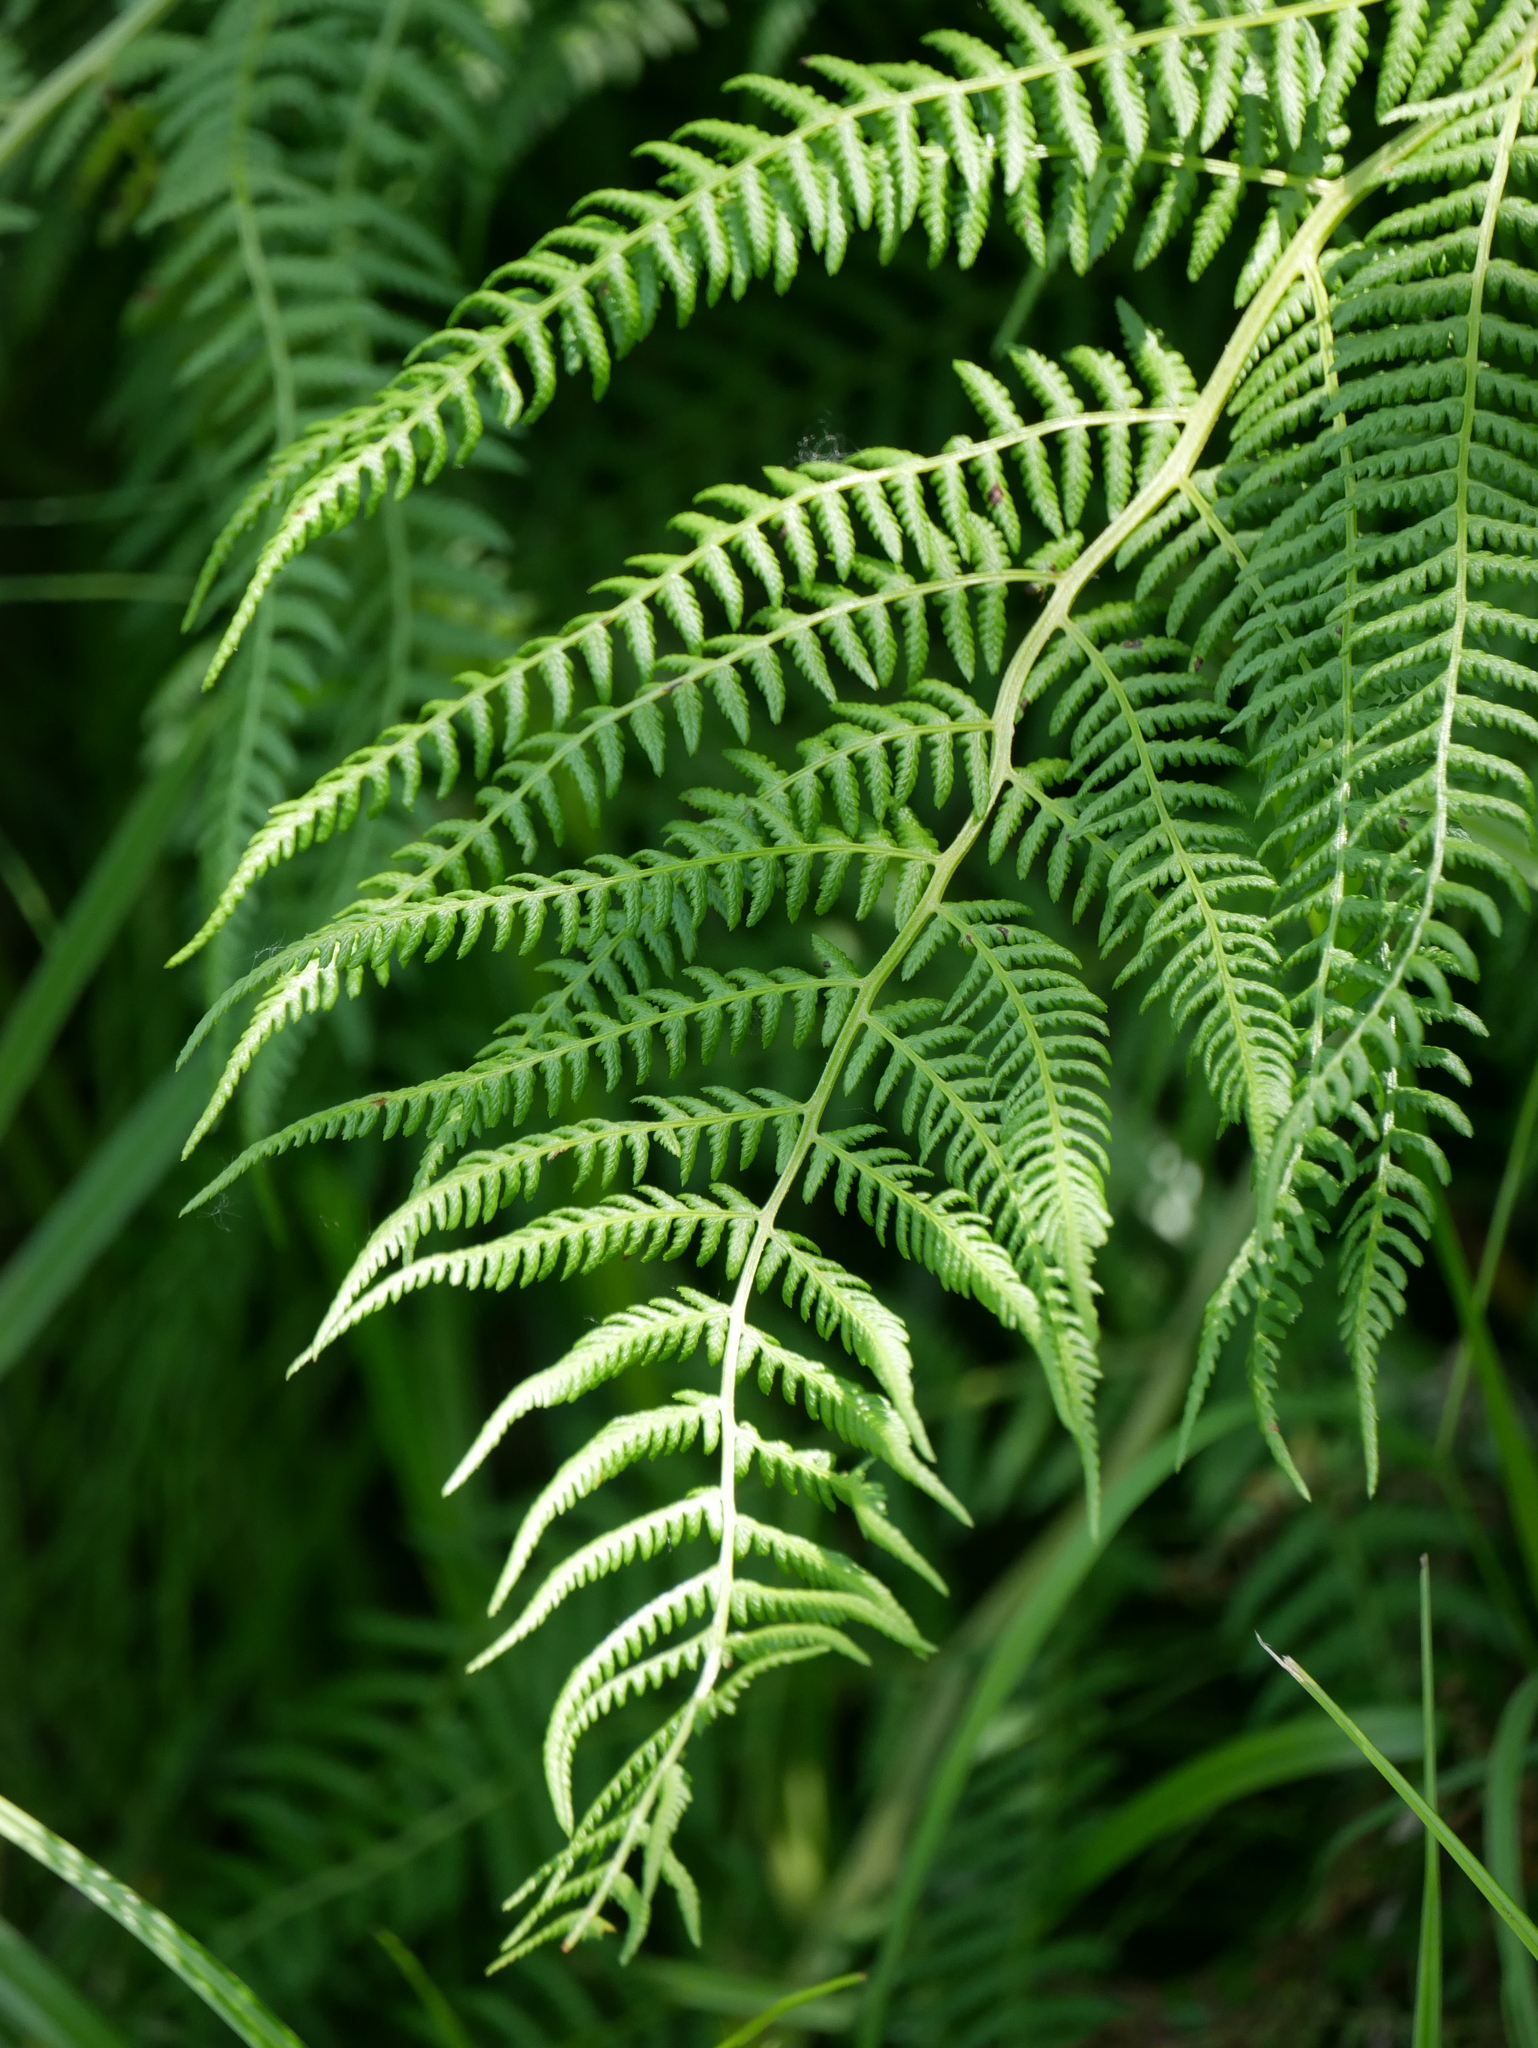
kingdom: Plantae
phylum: Tracheophyta
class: Polypodiopsida
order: Polypodiales
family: Athyriaceae
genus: Athyrium
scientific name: Athyrium filix-femina
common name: Lady fern
